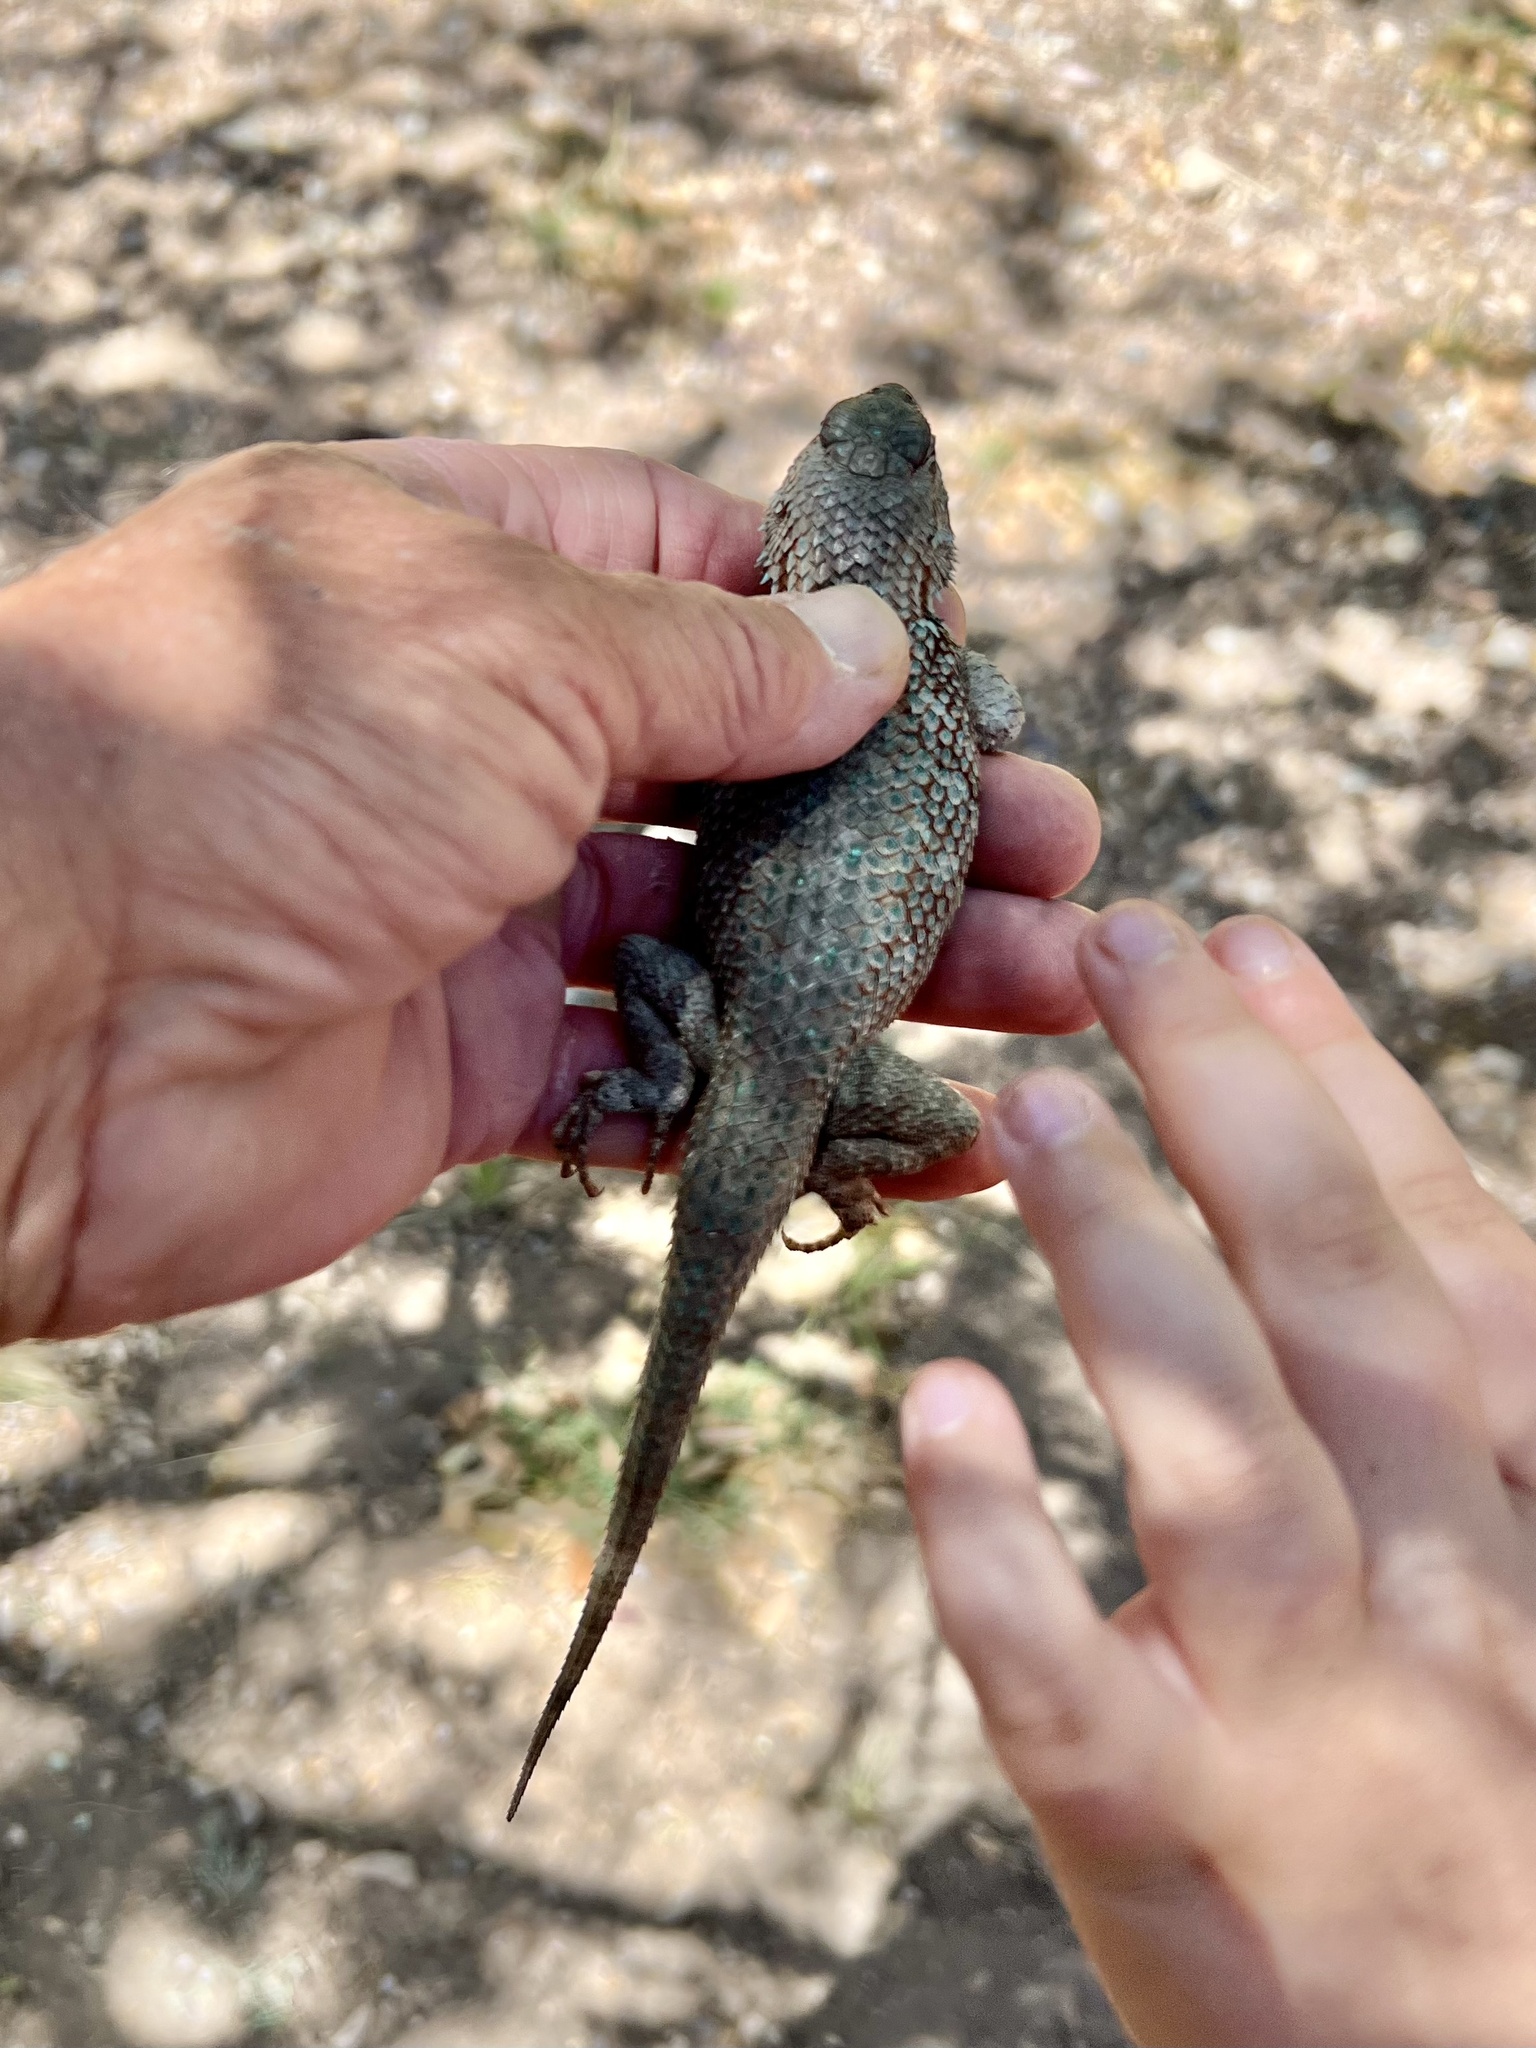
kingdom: Animalia
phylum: Chordata
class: Squamata
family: Phrynosomatidae
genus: Sceloporus
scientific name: Sceloporus clarkii
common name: Clark's spiny lizard
